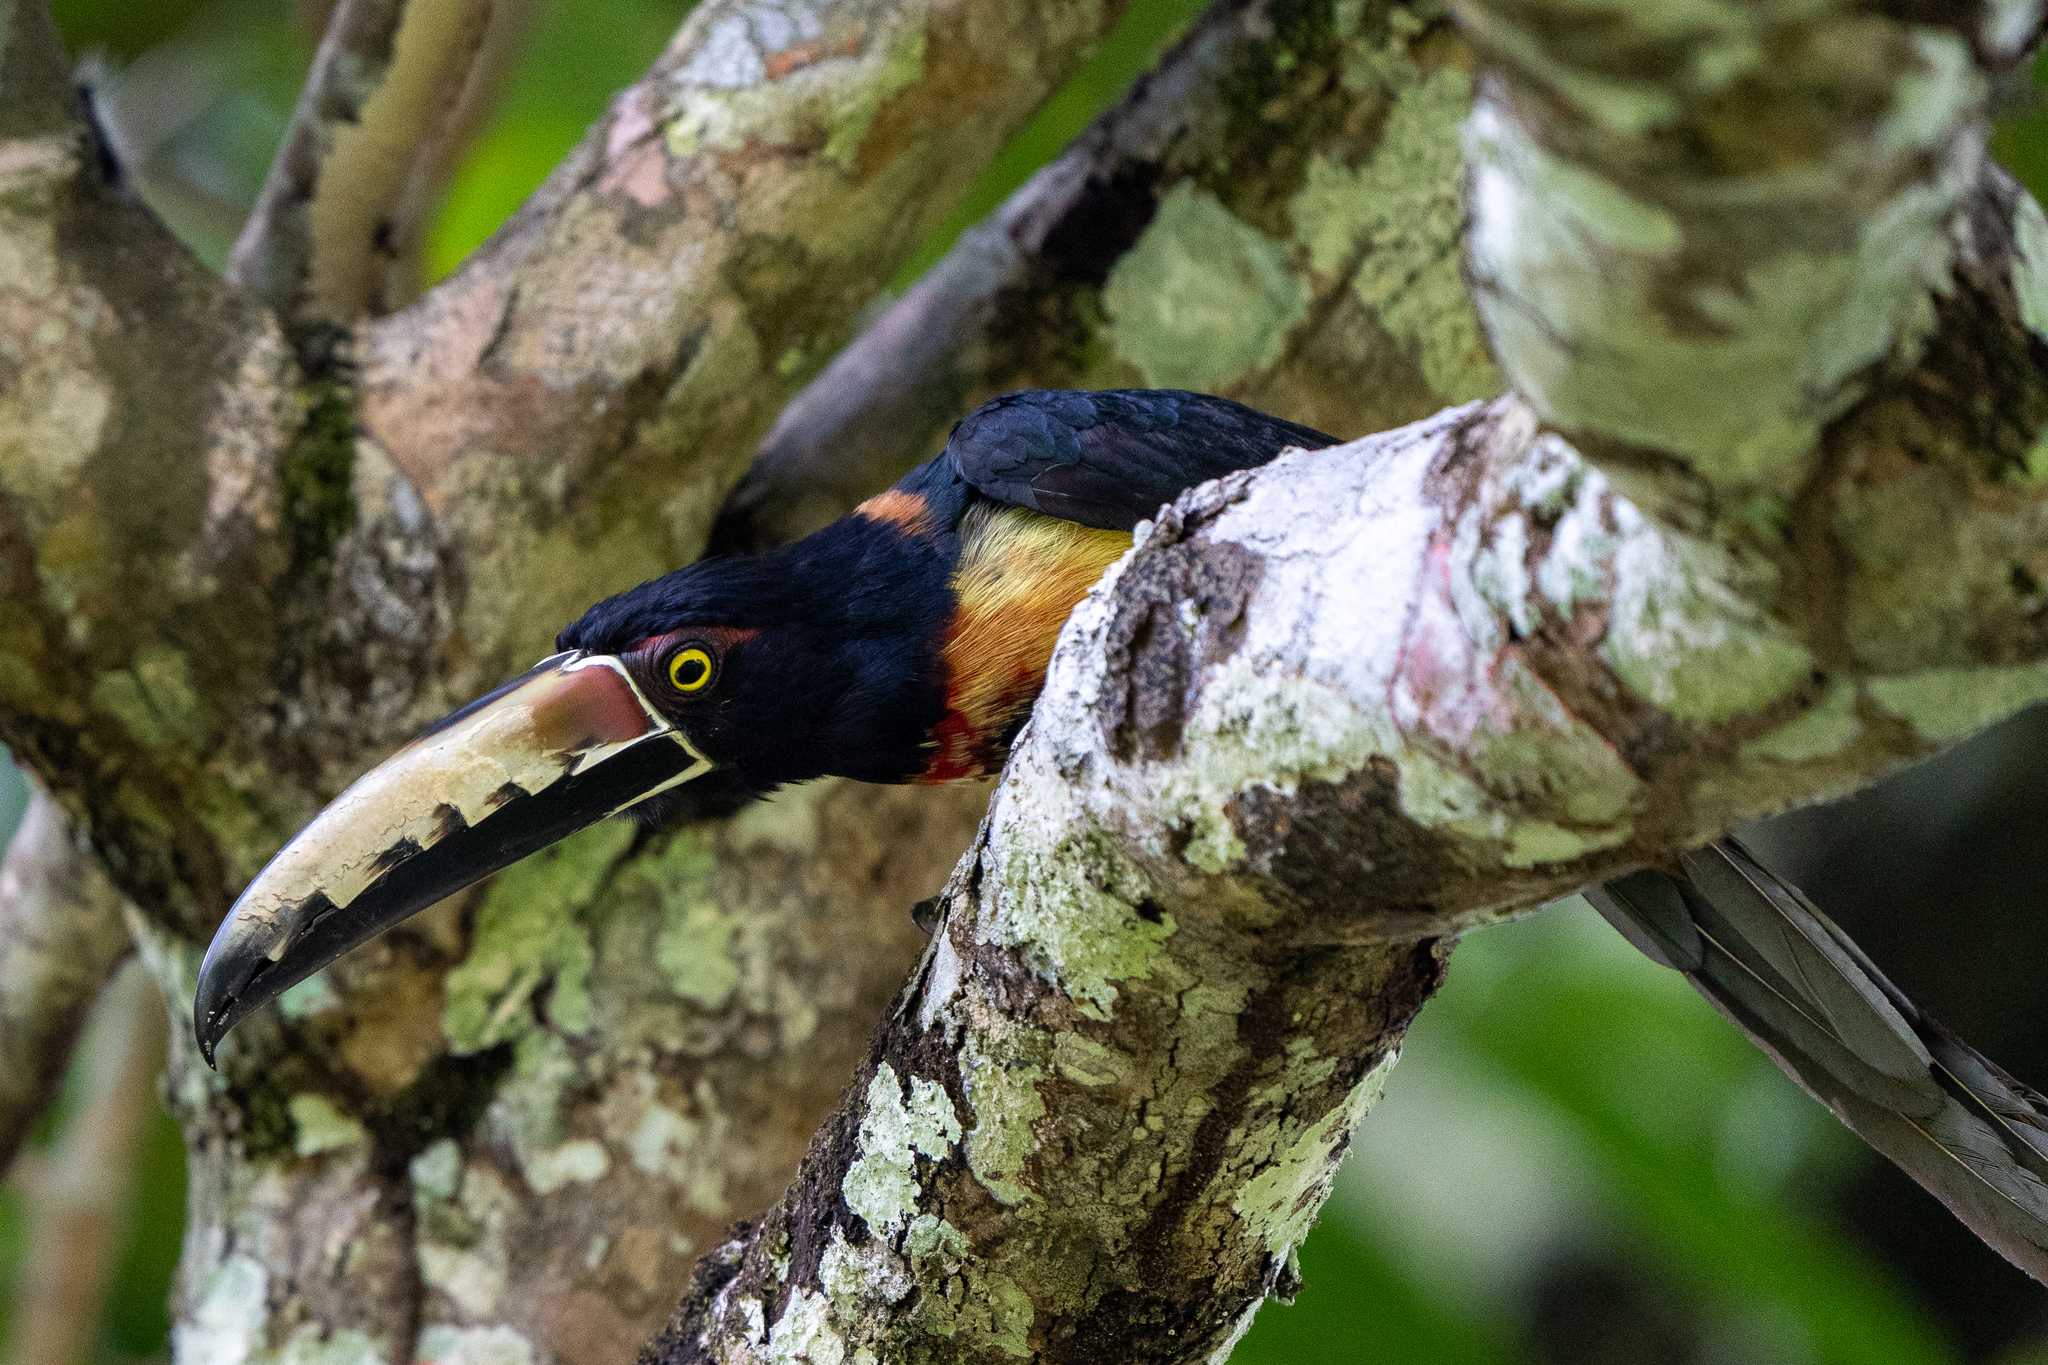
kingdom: Animalia
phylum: Chordata
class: Aves
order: Piciformes
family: Ramphastidae
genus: Pteroglossus
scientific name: Pteroglossus torquatus
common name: Collared aracari
